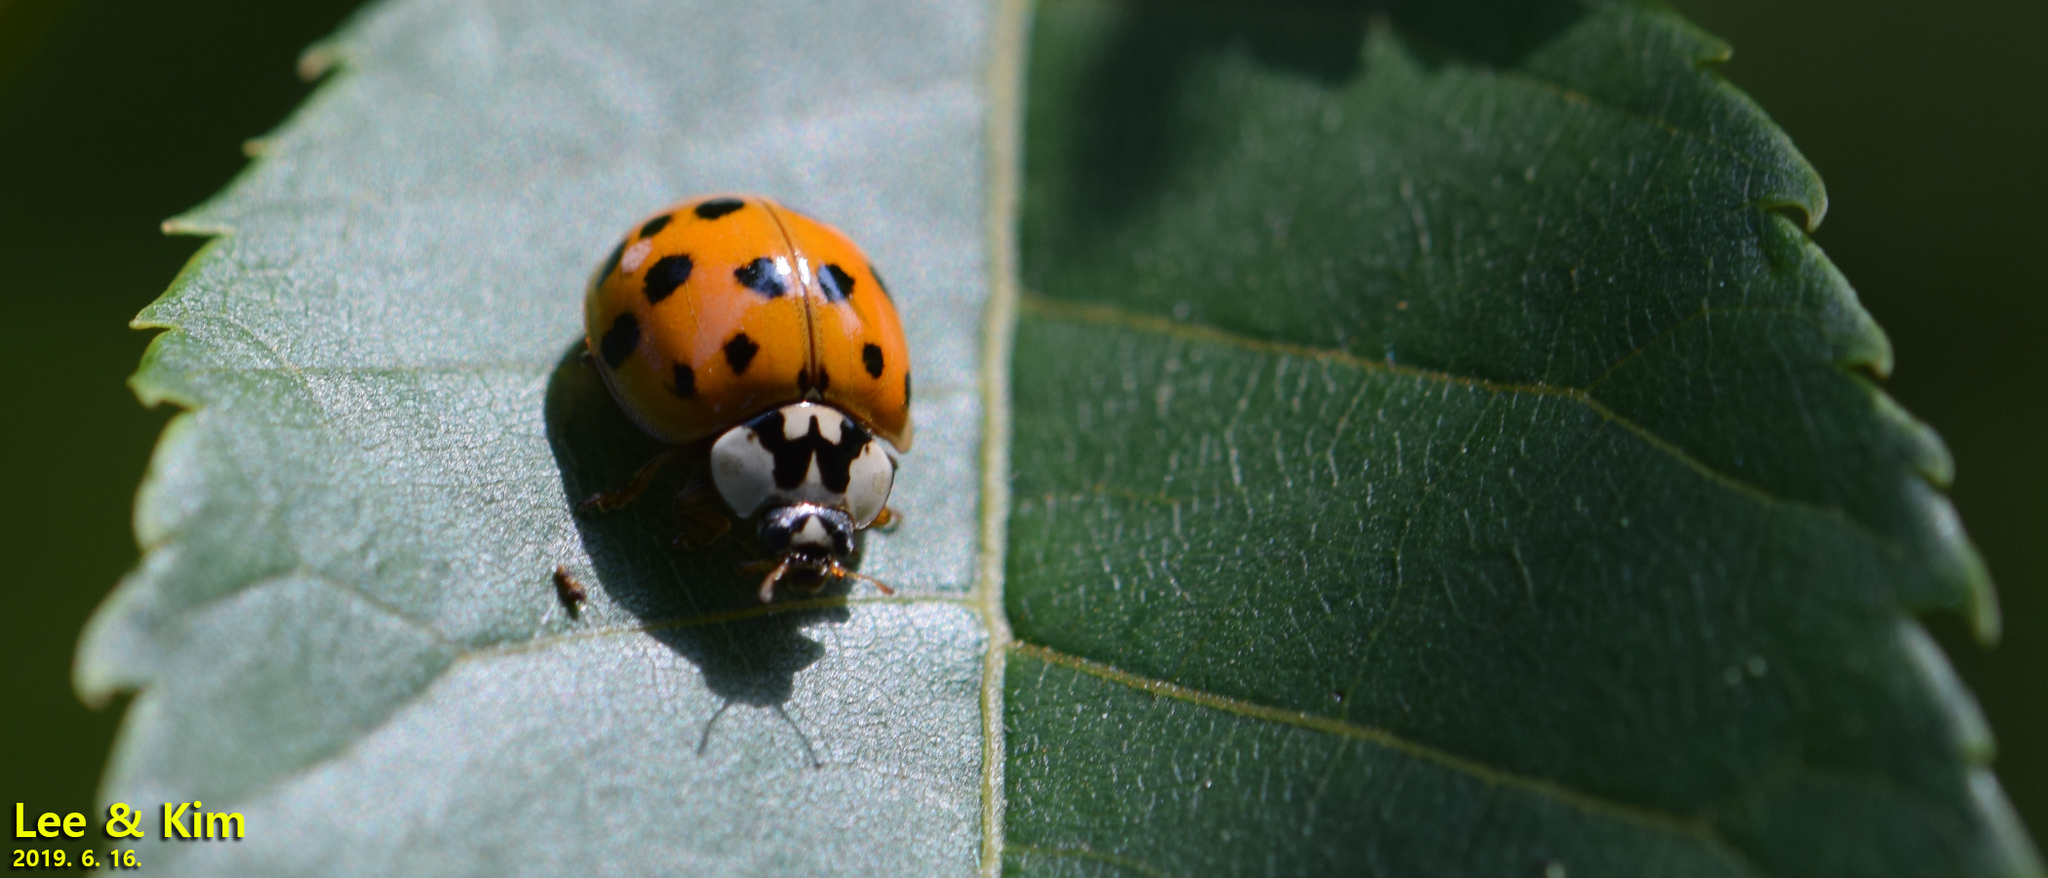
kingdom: Animalia
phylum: Arthropoda
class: Insecta
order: Coleoptera
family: Coccinellidae
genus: Harmonia
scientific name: Harmonia axyridis
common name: Harlequin ladybird
